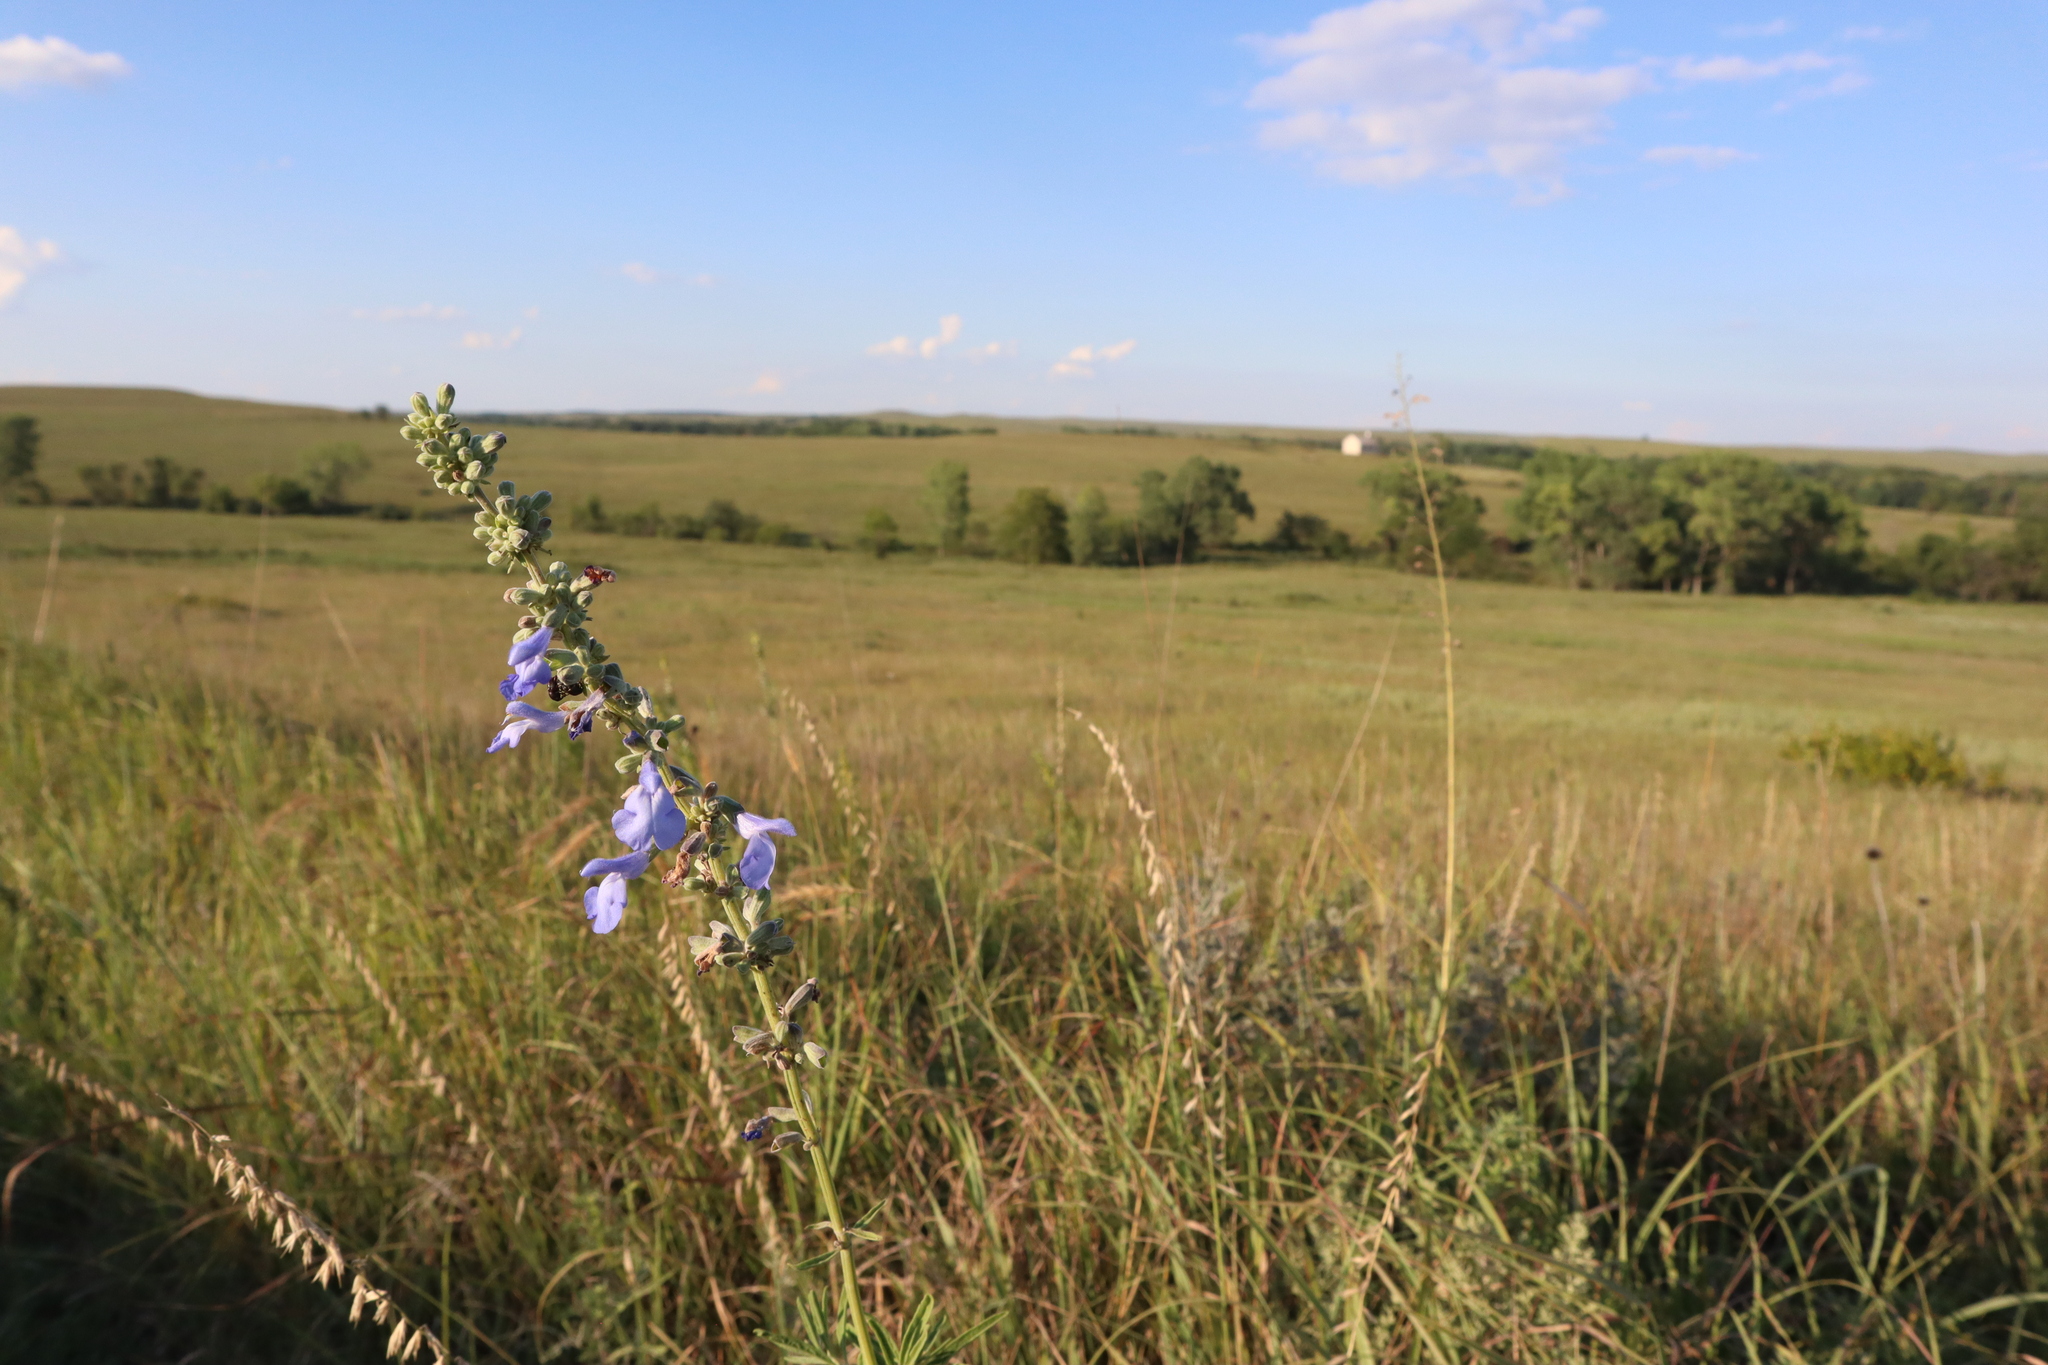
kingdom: Plantae
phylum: Tracheophyta
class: Magnoliopsida
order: Lamiales
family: Lamiaceae
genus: Salvia
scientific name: Salvia azurea
